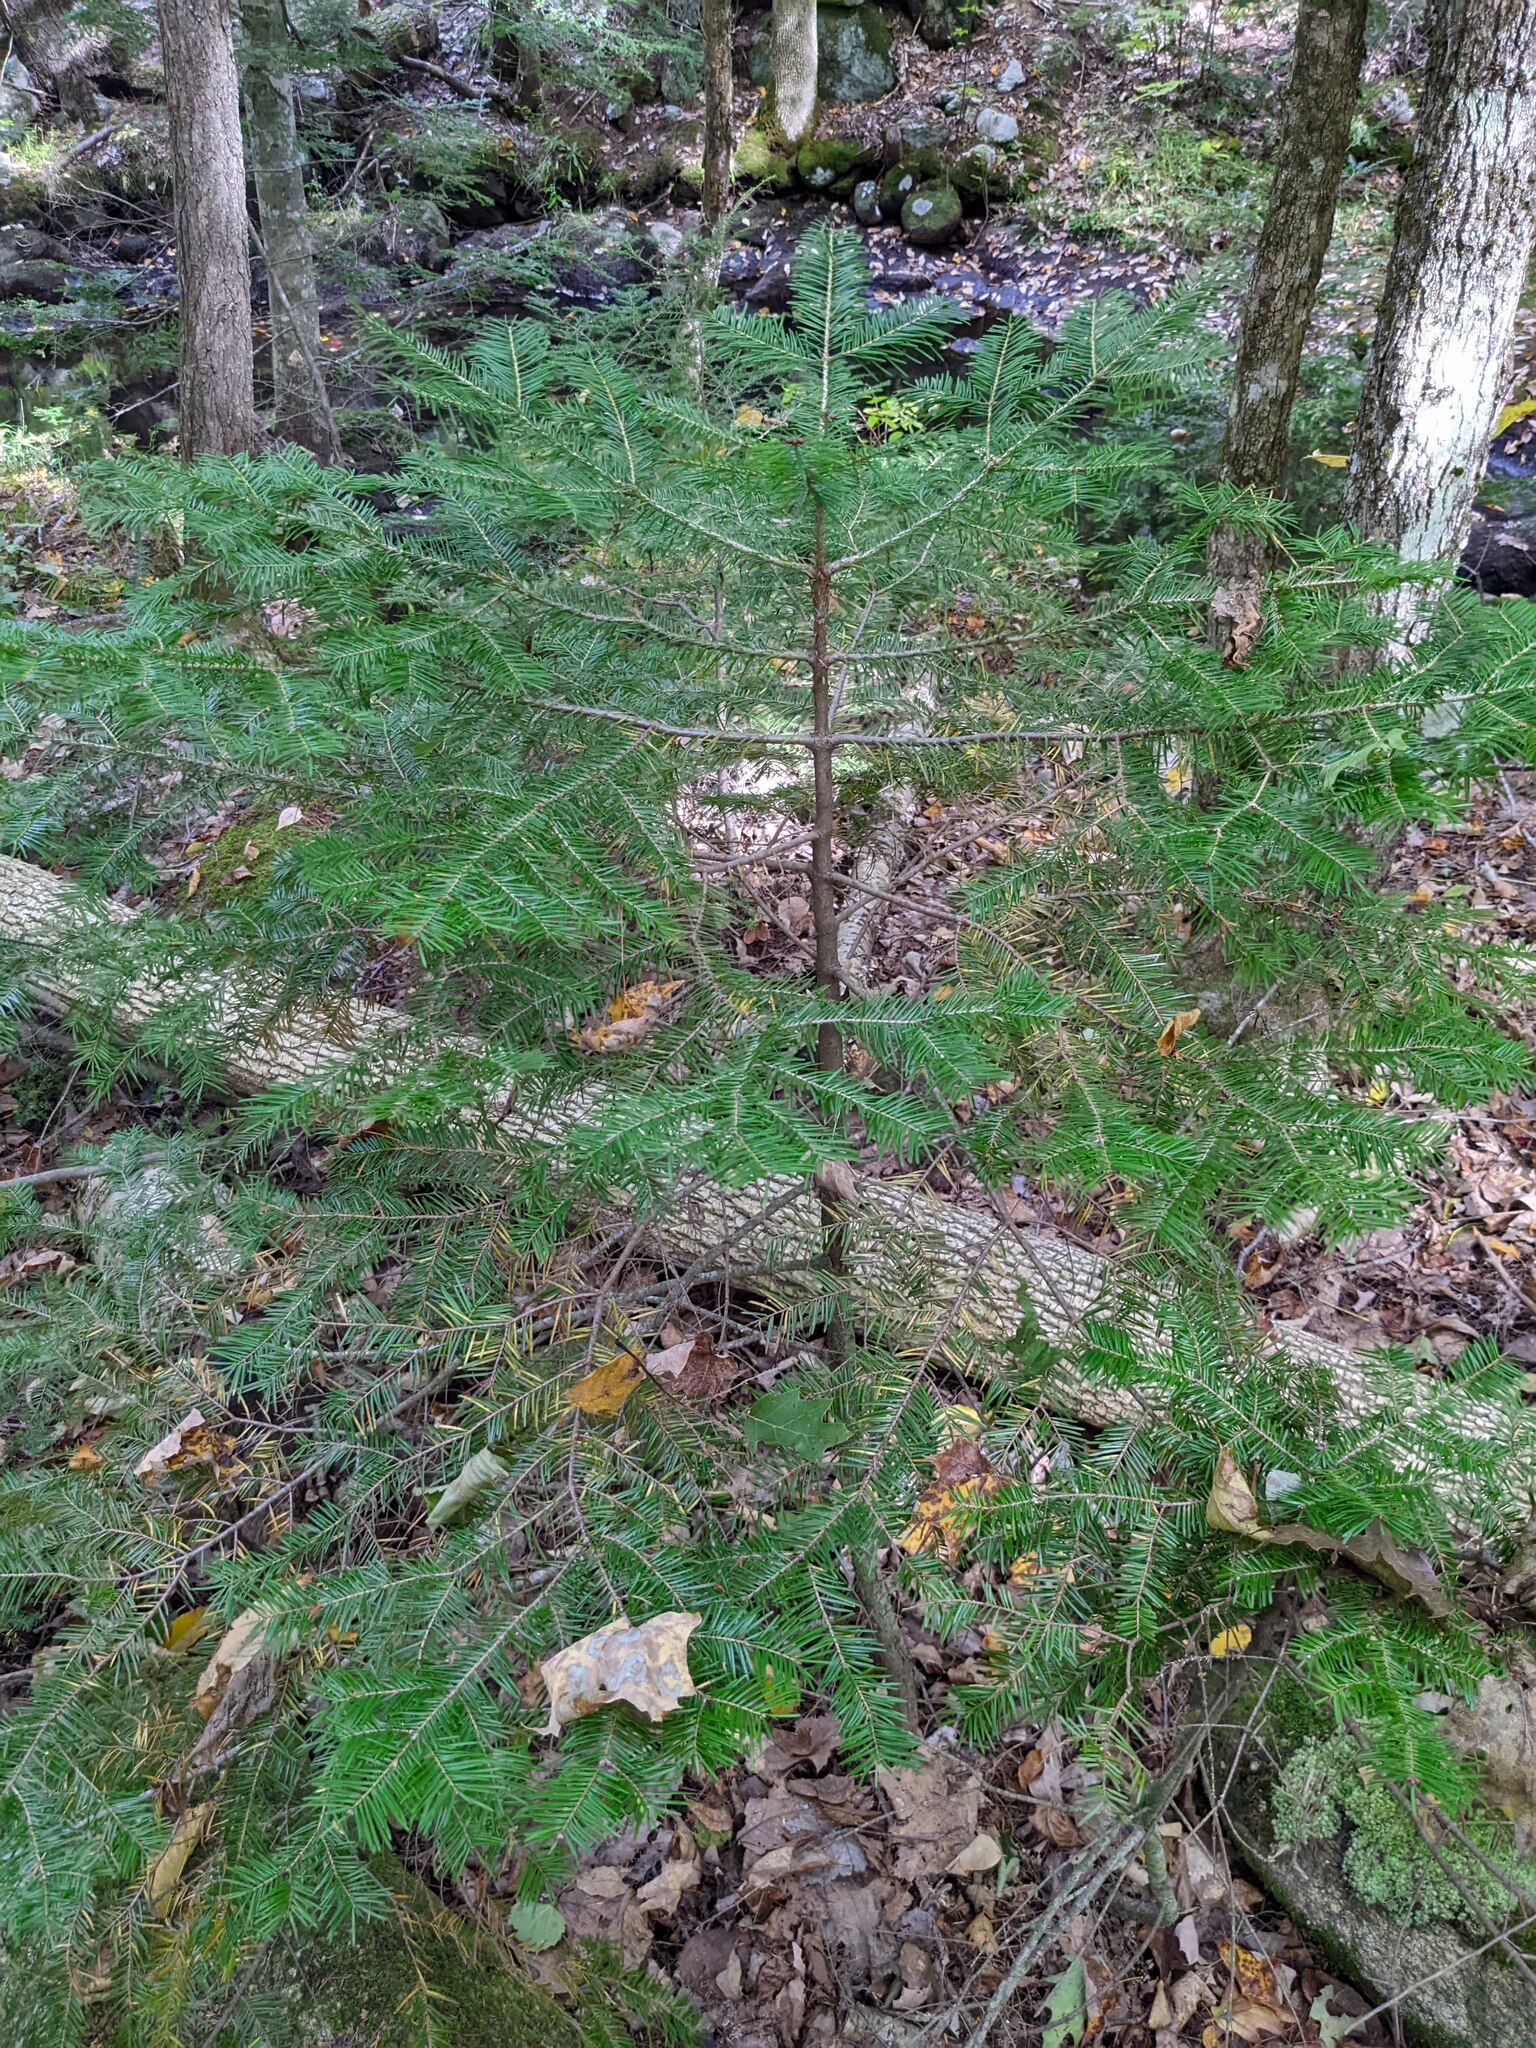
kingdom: Plantae
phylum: Tracheophyta
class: Pinopsida
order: Pinales
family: Pinaceae
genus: Abies
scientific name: Abies balsamea
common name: Balsam fir
